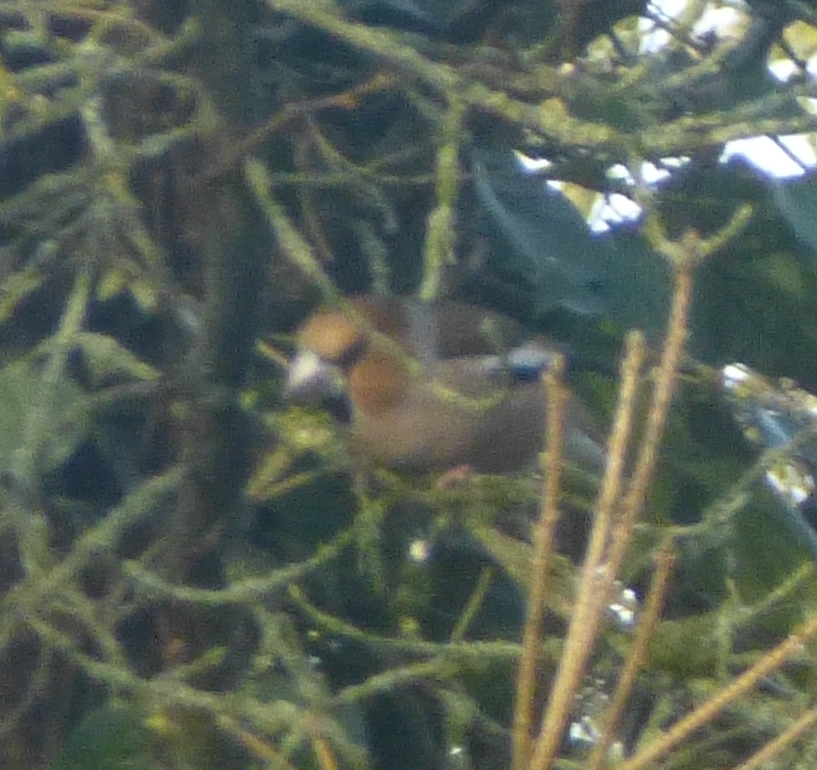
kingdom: Animalia
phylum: Chordata
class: Aves
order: Passeriformes
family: Fringillidae
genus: Coccothraustes
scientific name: Coccothraustes coccothraustes
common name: Hawfinch
